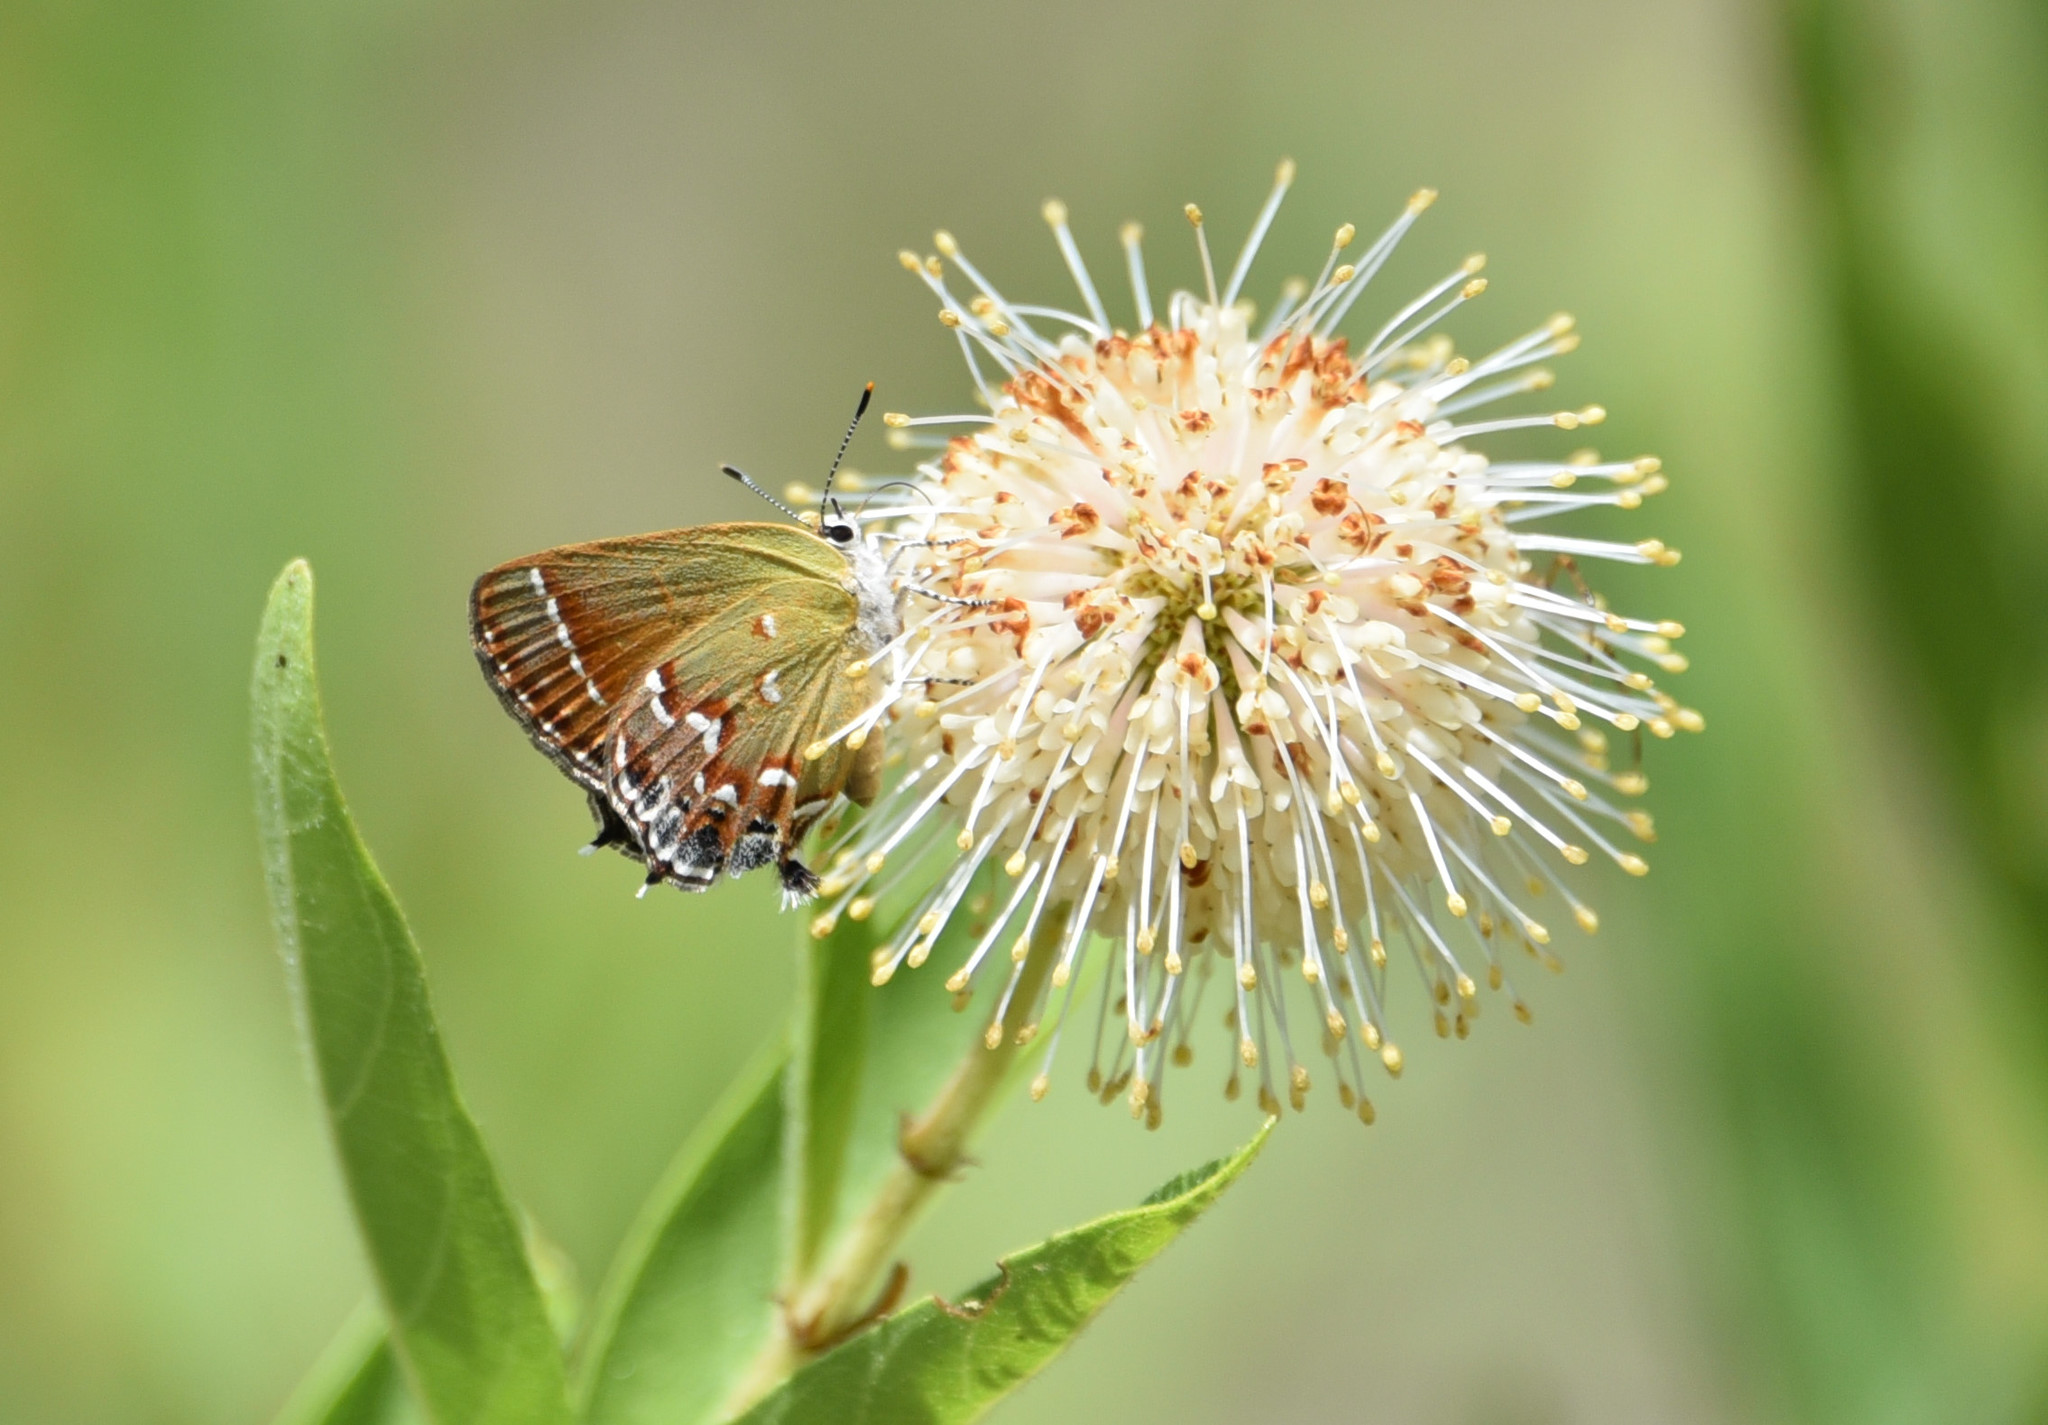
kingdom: Animalia
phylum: Arthropoda
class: Insecta
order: Lepidoptera
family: Lycaenidae
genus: Mitoura
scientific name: Mitoura gryneus
